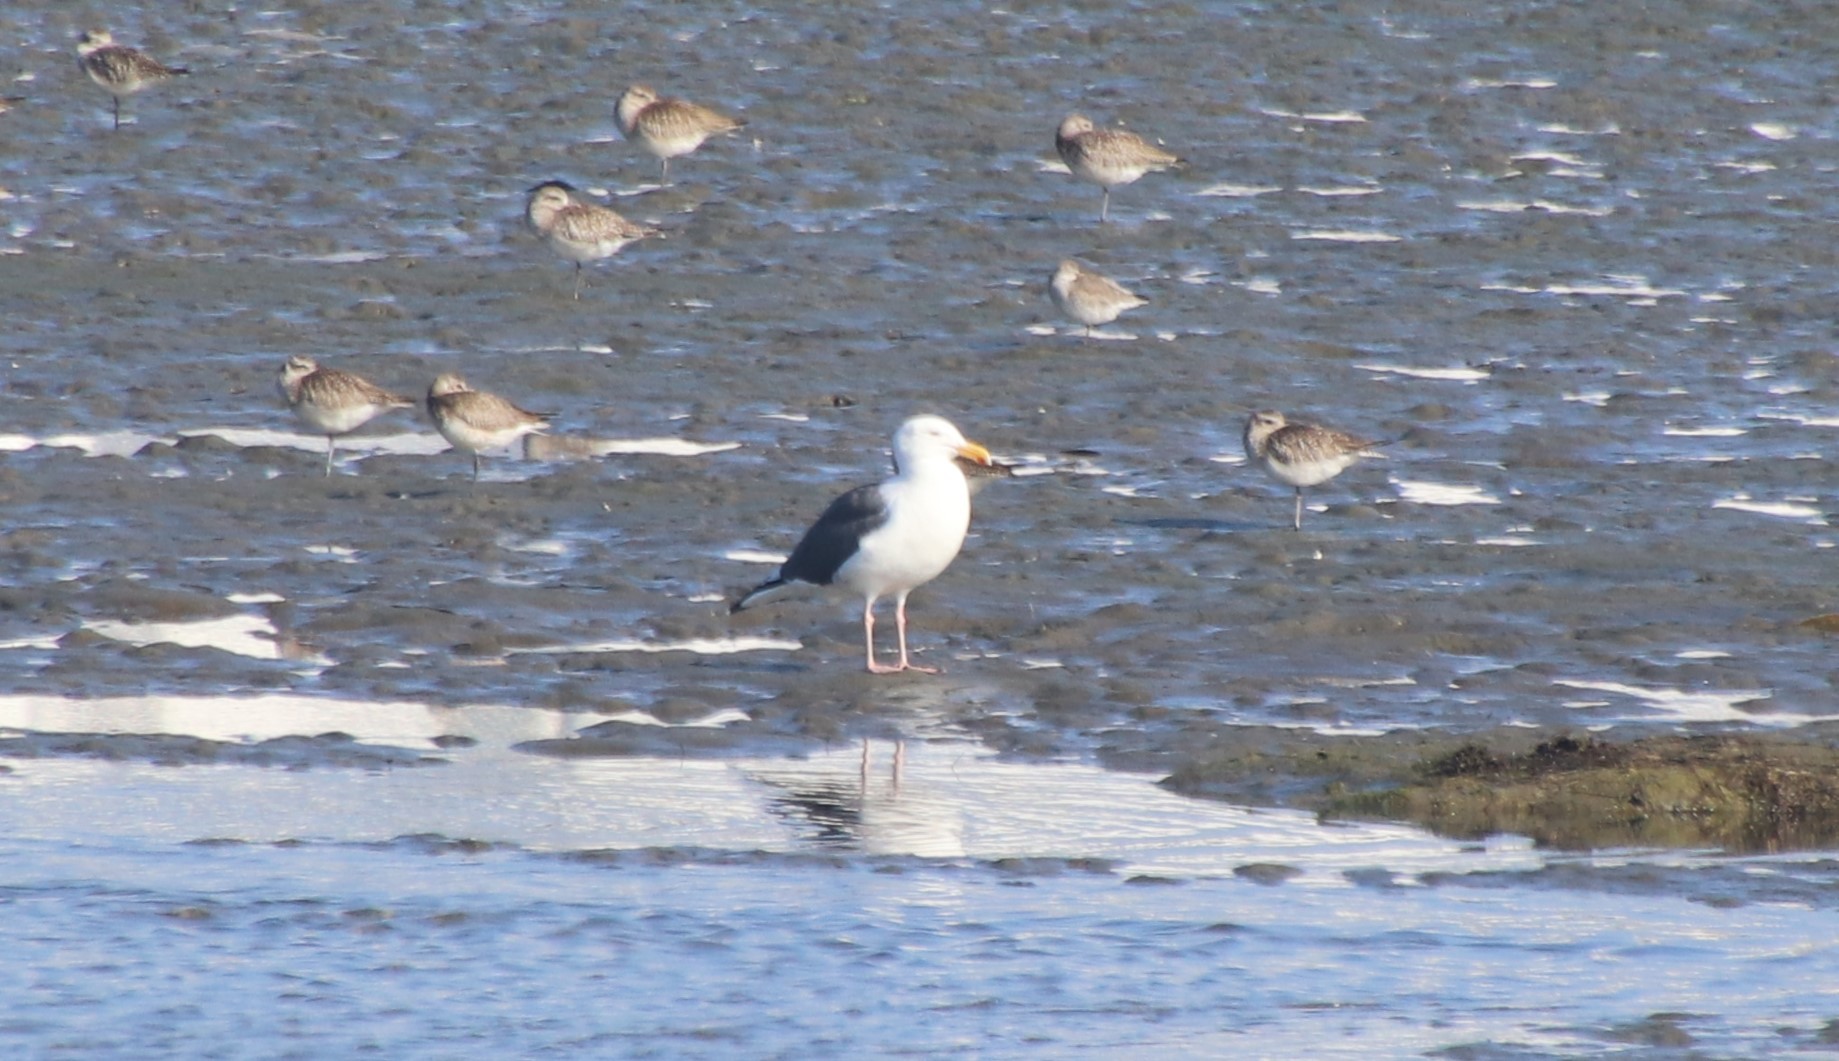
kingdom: Animalia
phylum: Chordata
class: Aves
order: Charadriiformes
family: Laridae
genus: Larus
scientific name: Larus occidentalis
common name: Western gull
